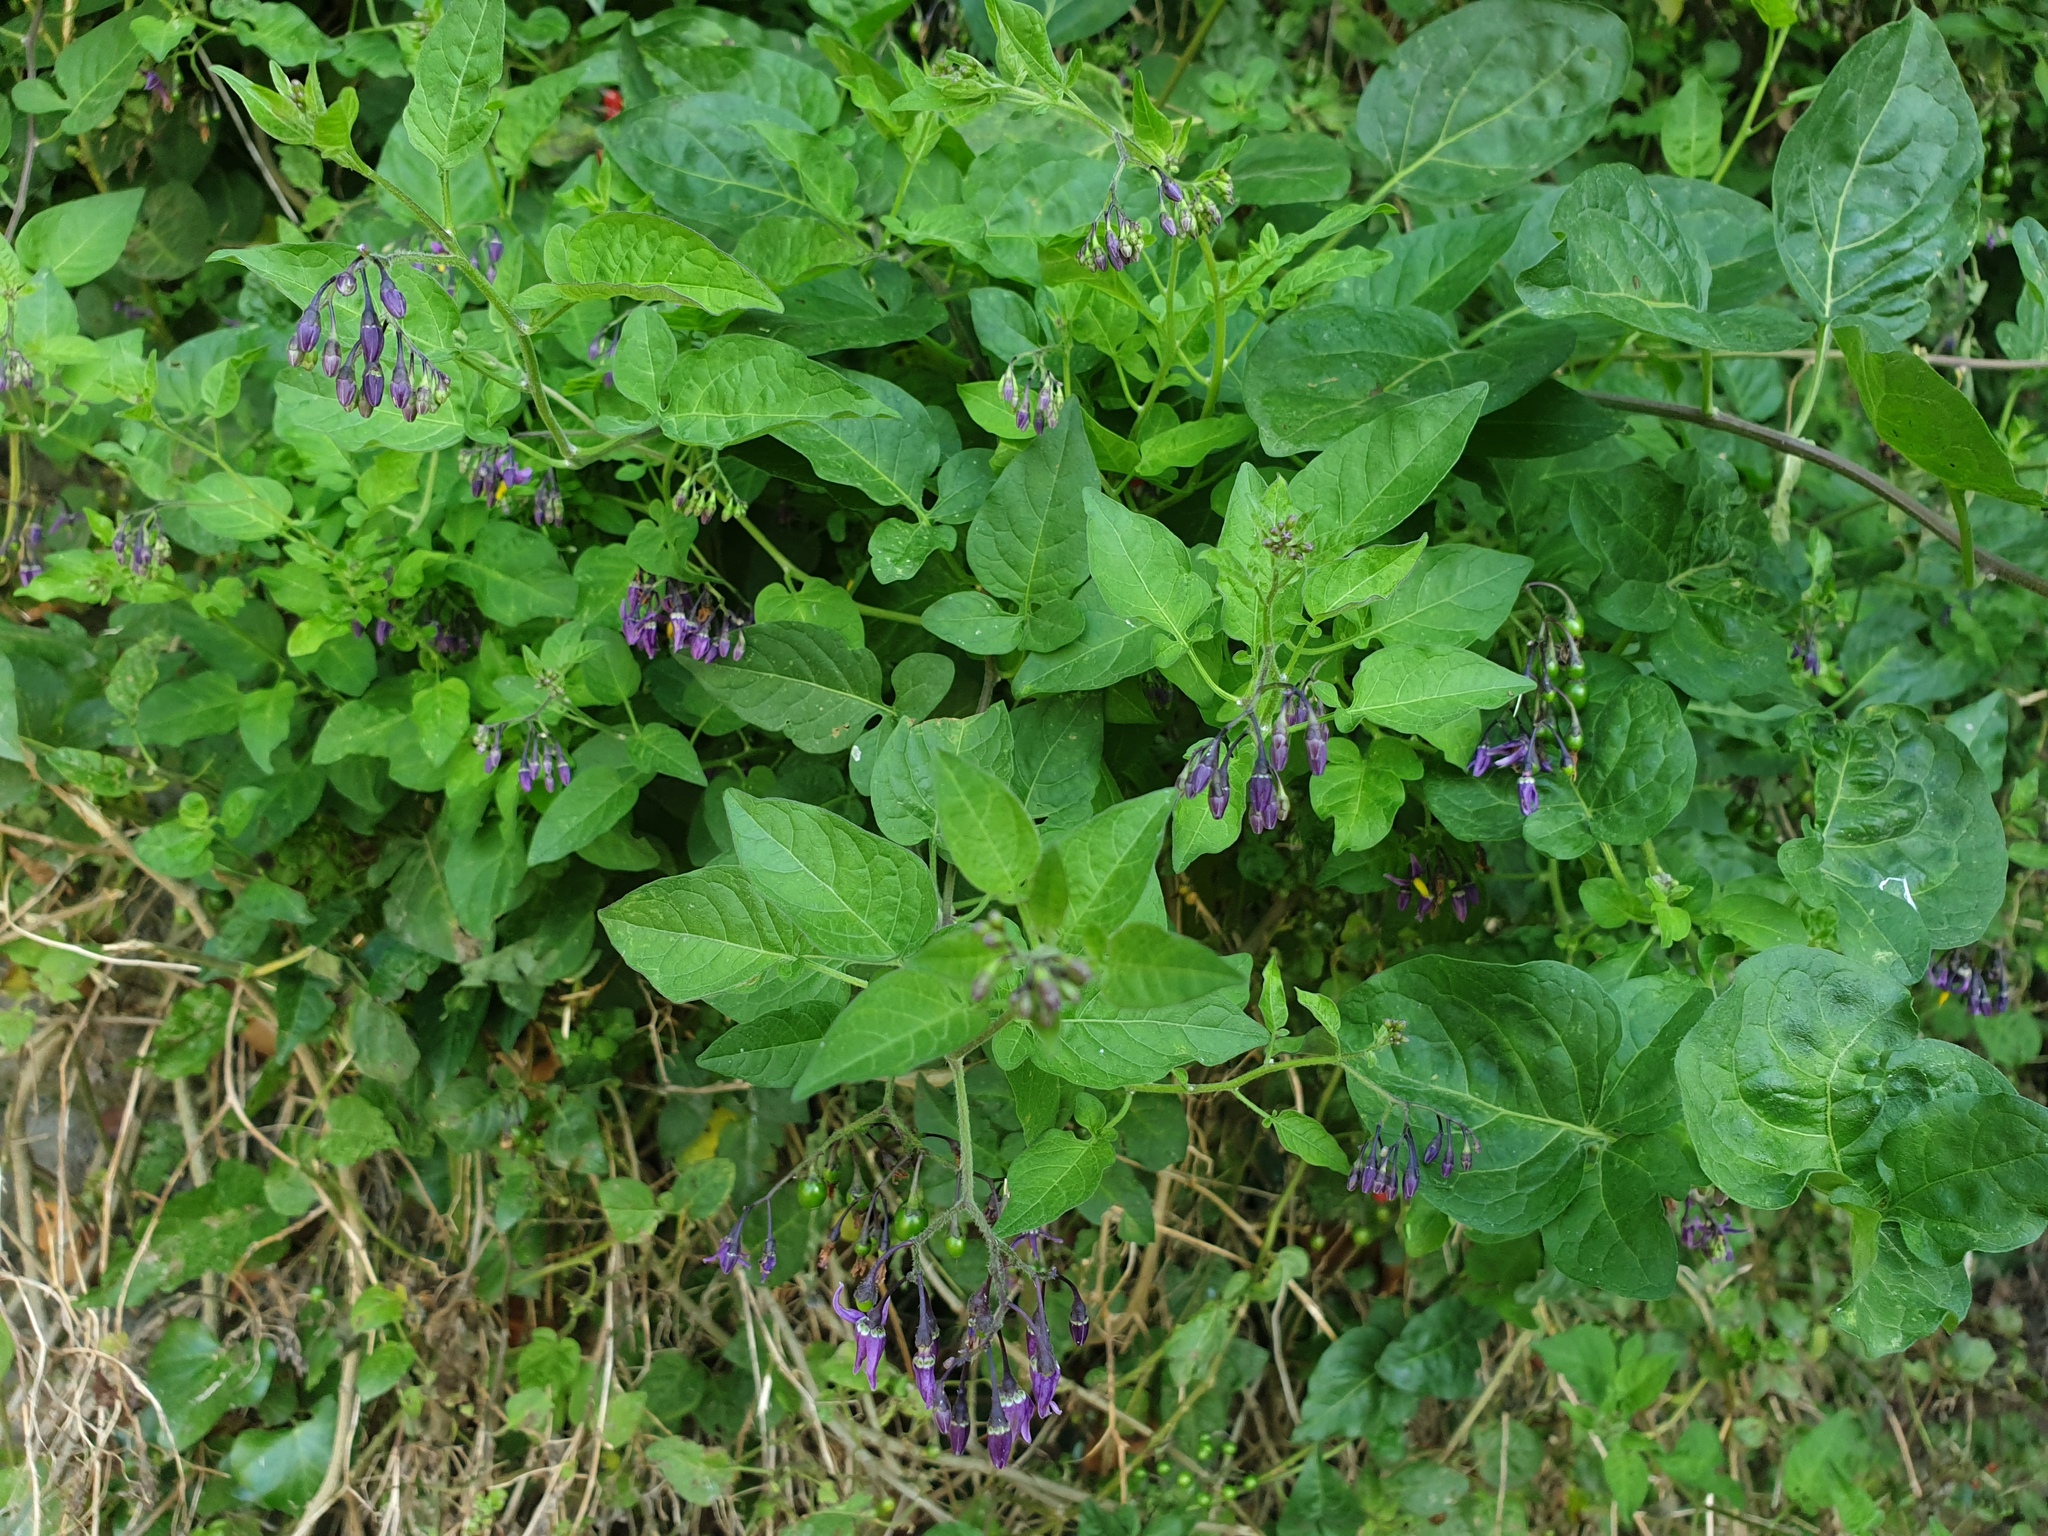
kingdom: Plantae
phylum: Tracheophyta
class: Magnoliopsida
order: Solanales
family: Solanaceae
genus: Solanum
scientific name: Solanum dulcamara
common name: Climbing nightshade
